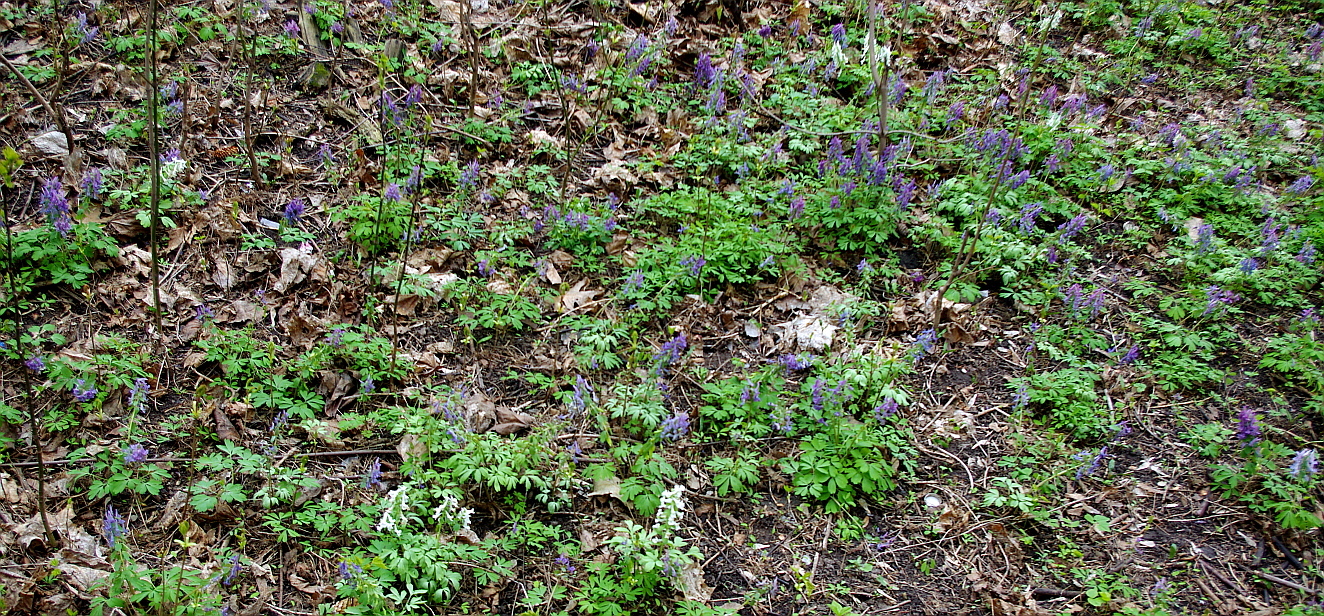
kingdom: Plantae
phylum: Tracheophyta
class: Magnoliopsida
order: Ranunculales
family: Papaveraceae
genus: Corydalis
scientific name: Corydalis solida
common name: Bird-in-a-bush
